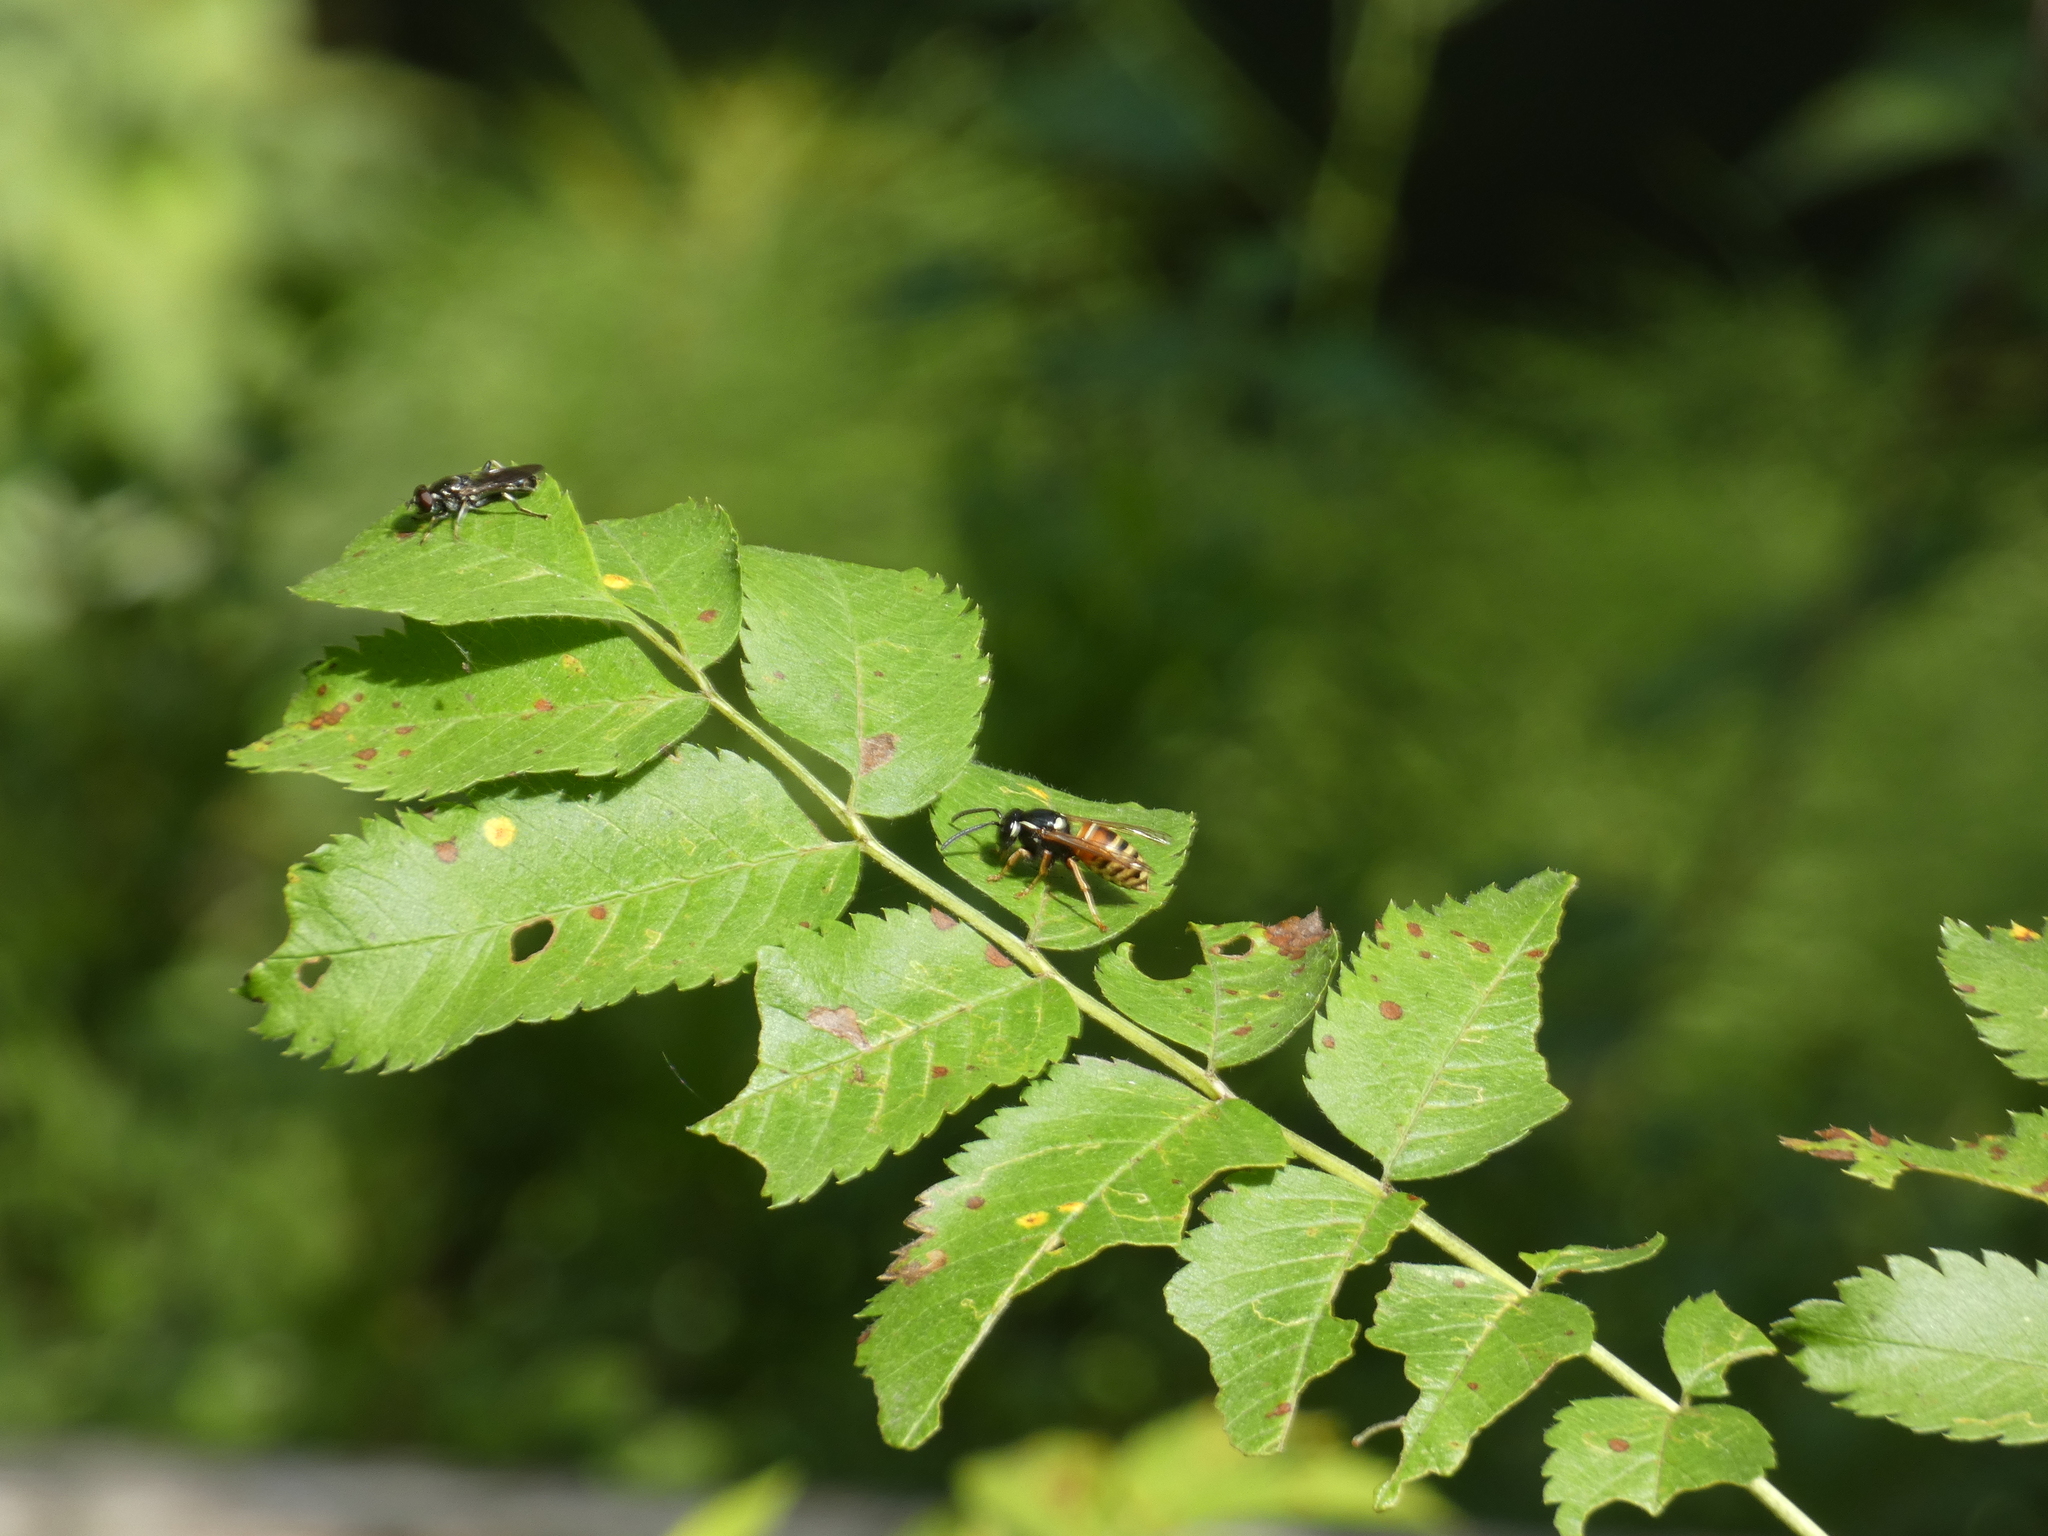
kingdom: Animalia
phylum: Arthropoda
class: Insecta
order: Hymenoptera
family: Vespidae
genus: Vespula
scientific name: Vespula rufa
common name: Red wasp
